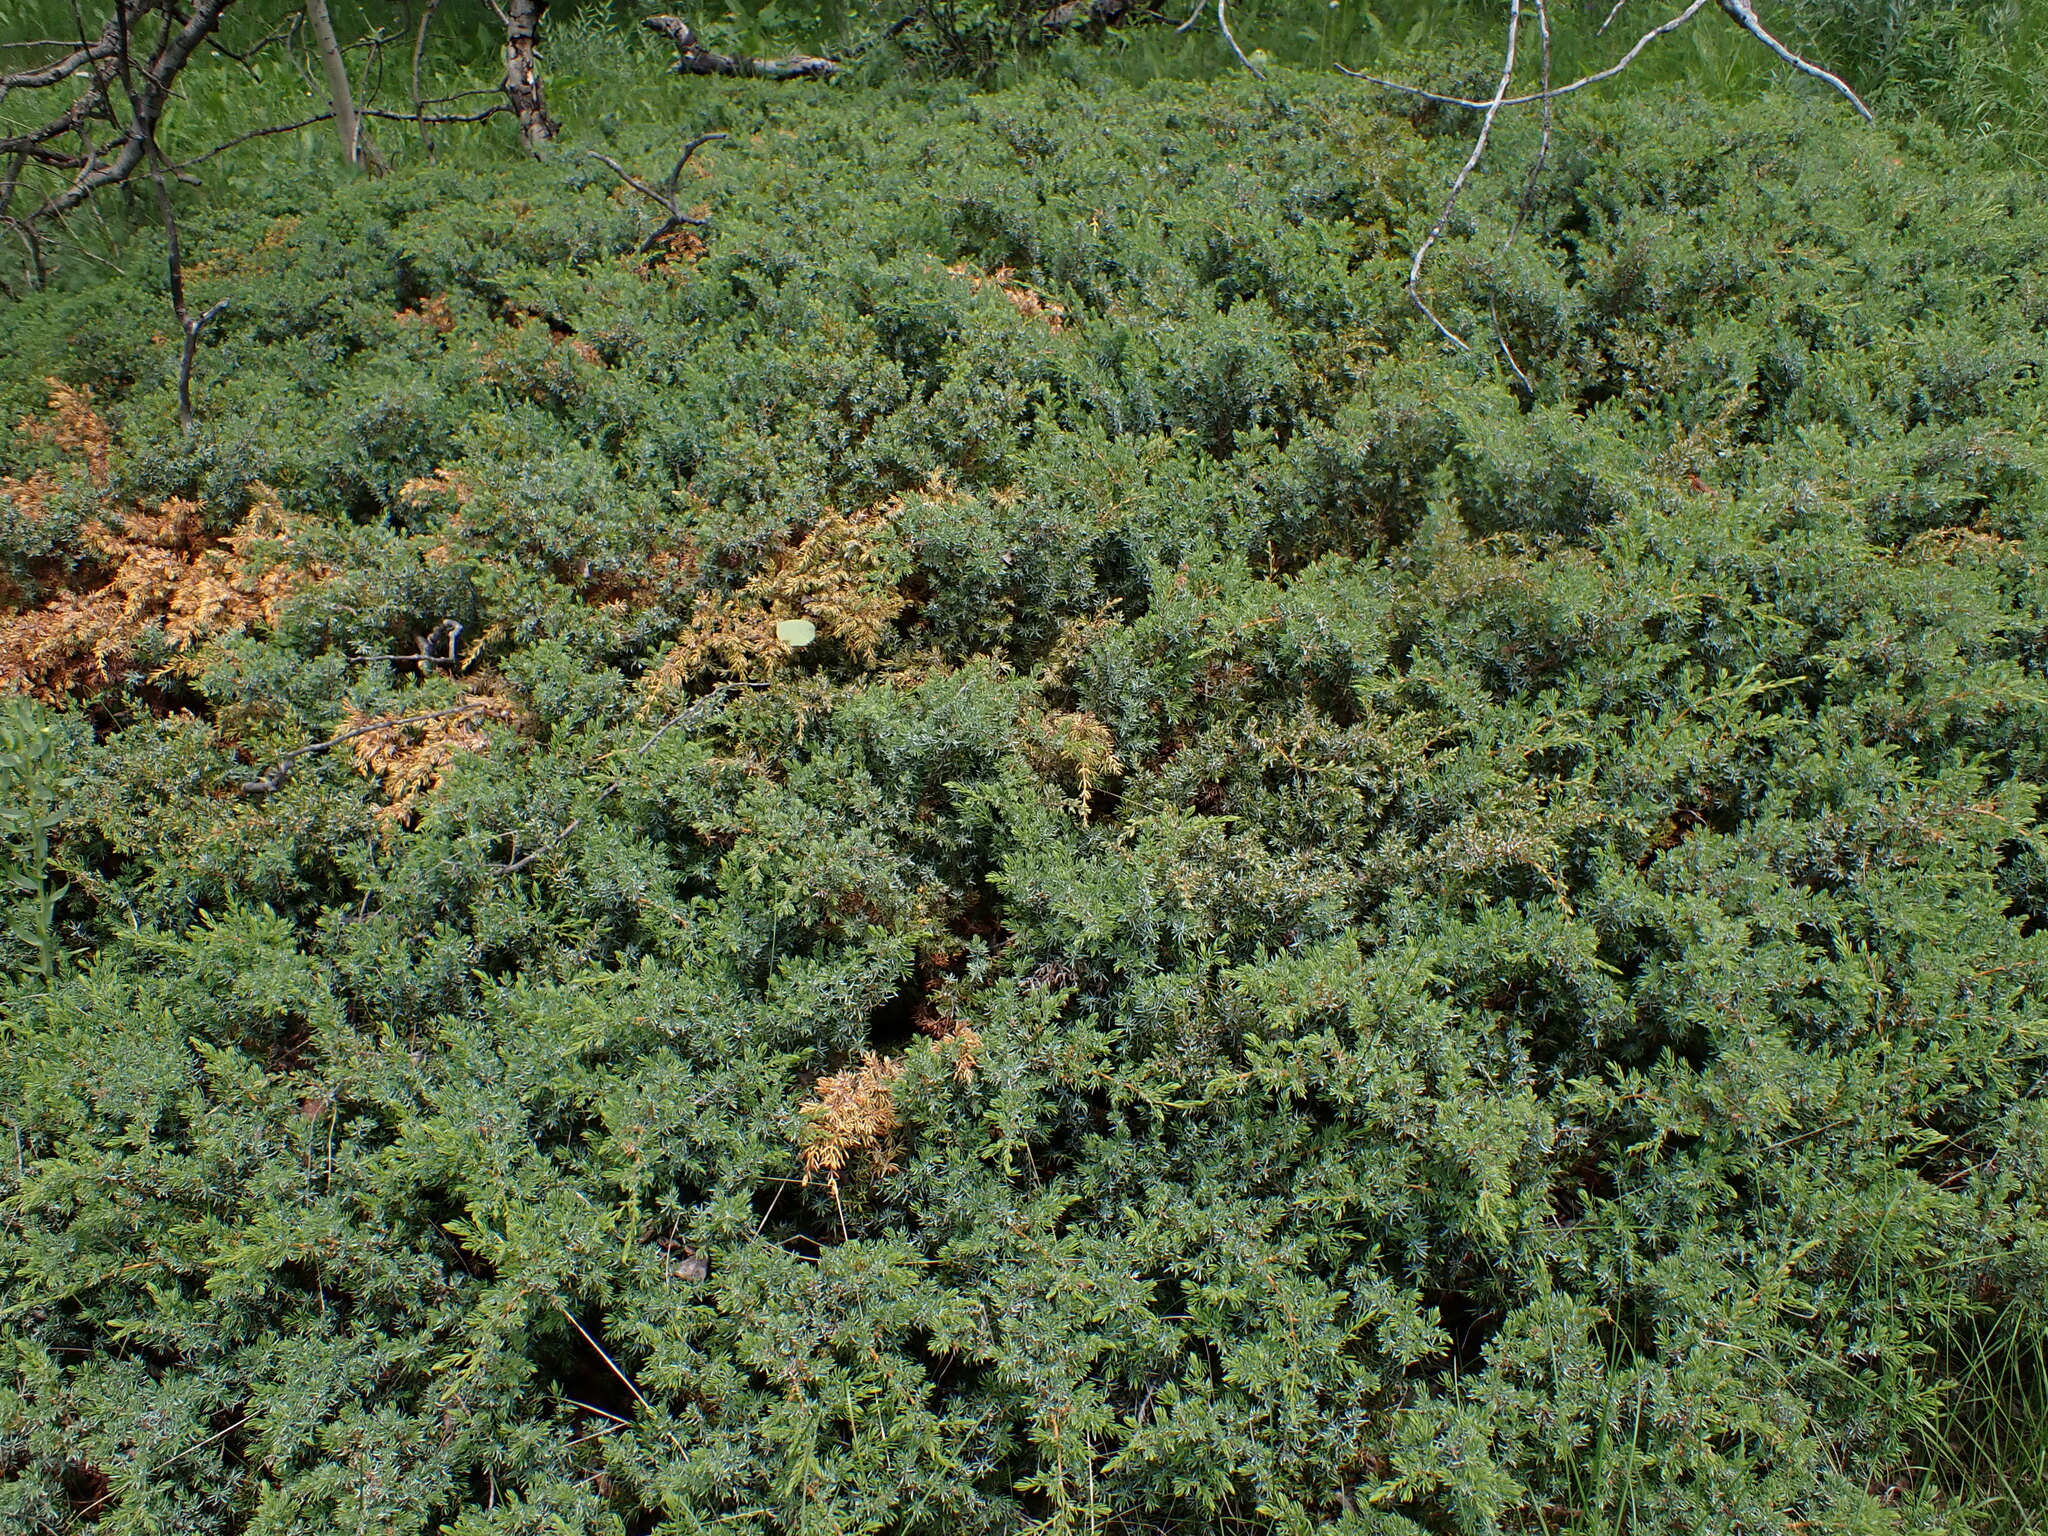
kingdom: Plantae
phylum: Tracheophyta
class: Pinopsida
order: Pinales
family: Cupressaceae
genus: Juniperus
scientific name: Juniperus communis
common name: Common juniper
